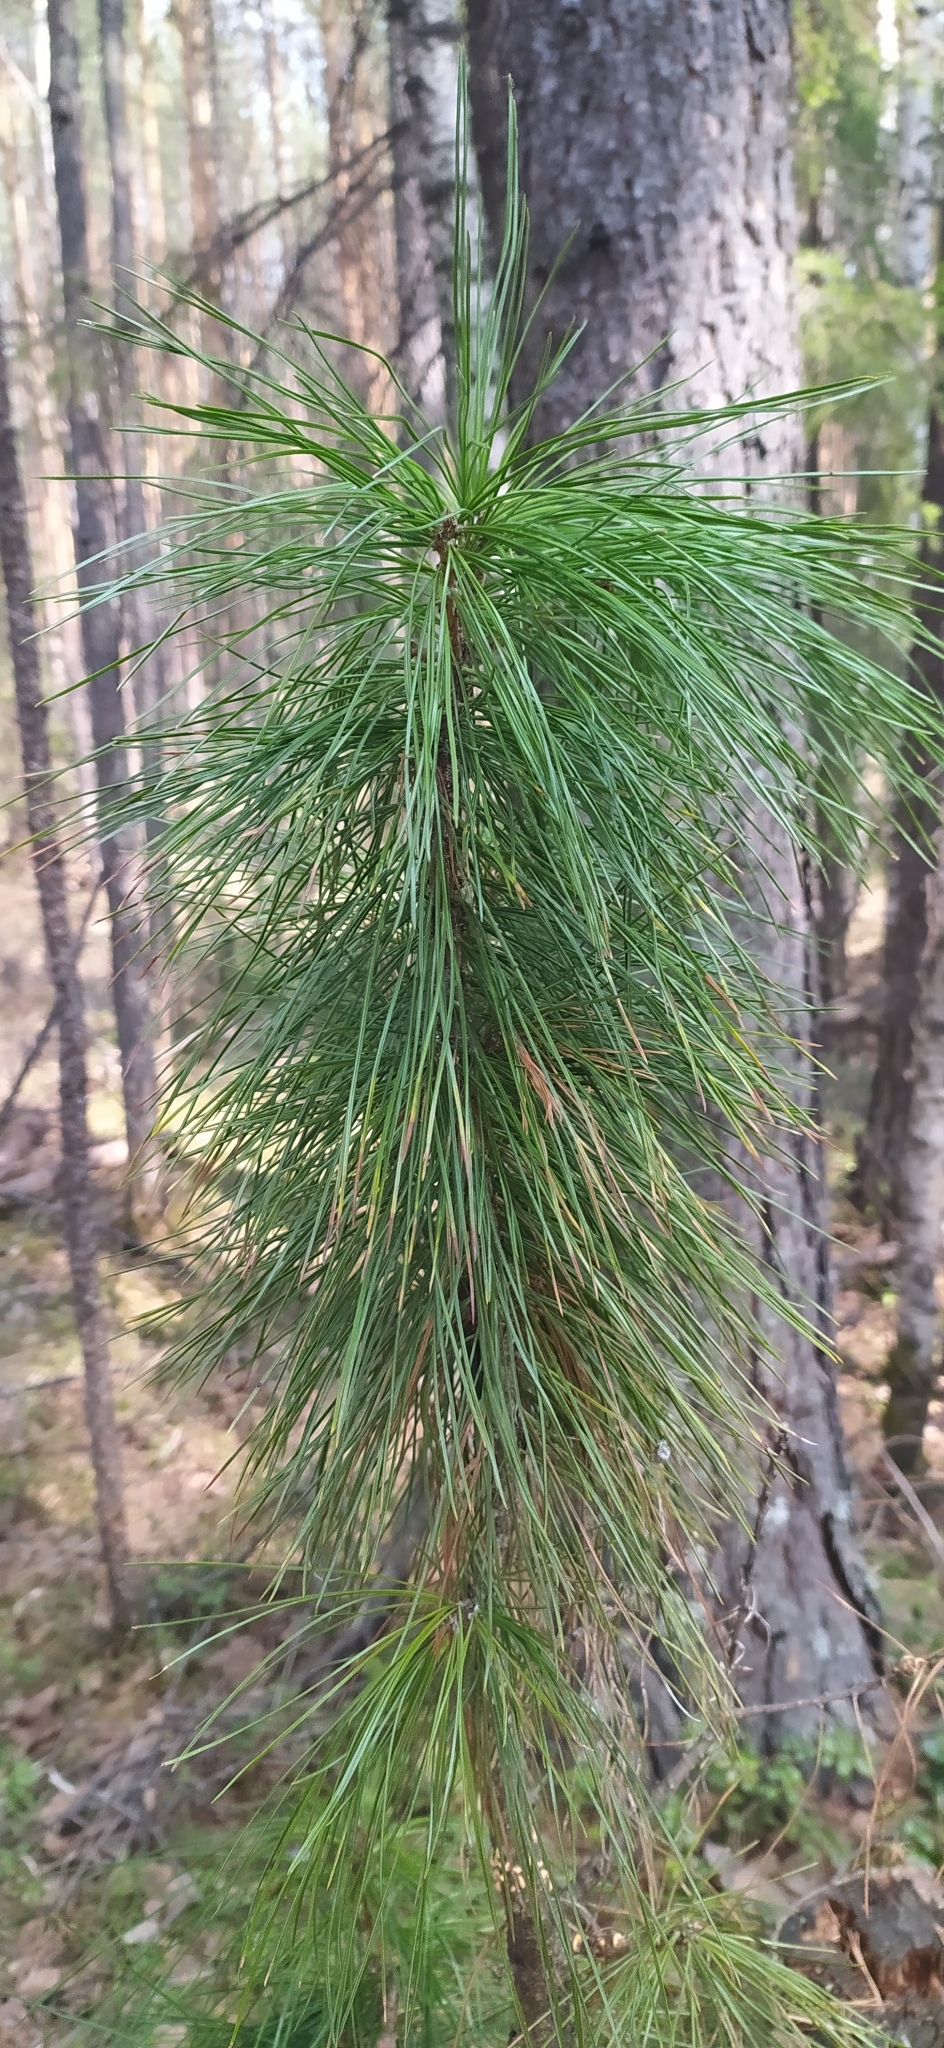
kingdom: Plantae
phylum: Tracheophyta
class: Pinopsida
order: Pinales
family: Pinaceae
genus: Pinus
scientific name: Pinus sibirica
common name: Siberian pine
